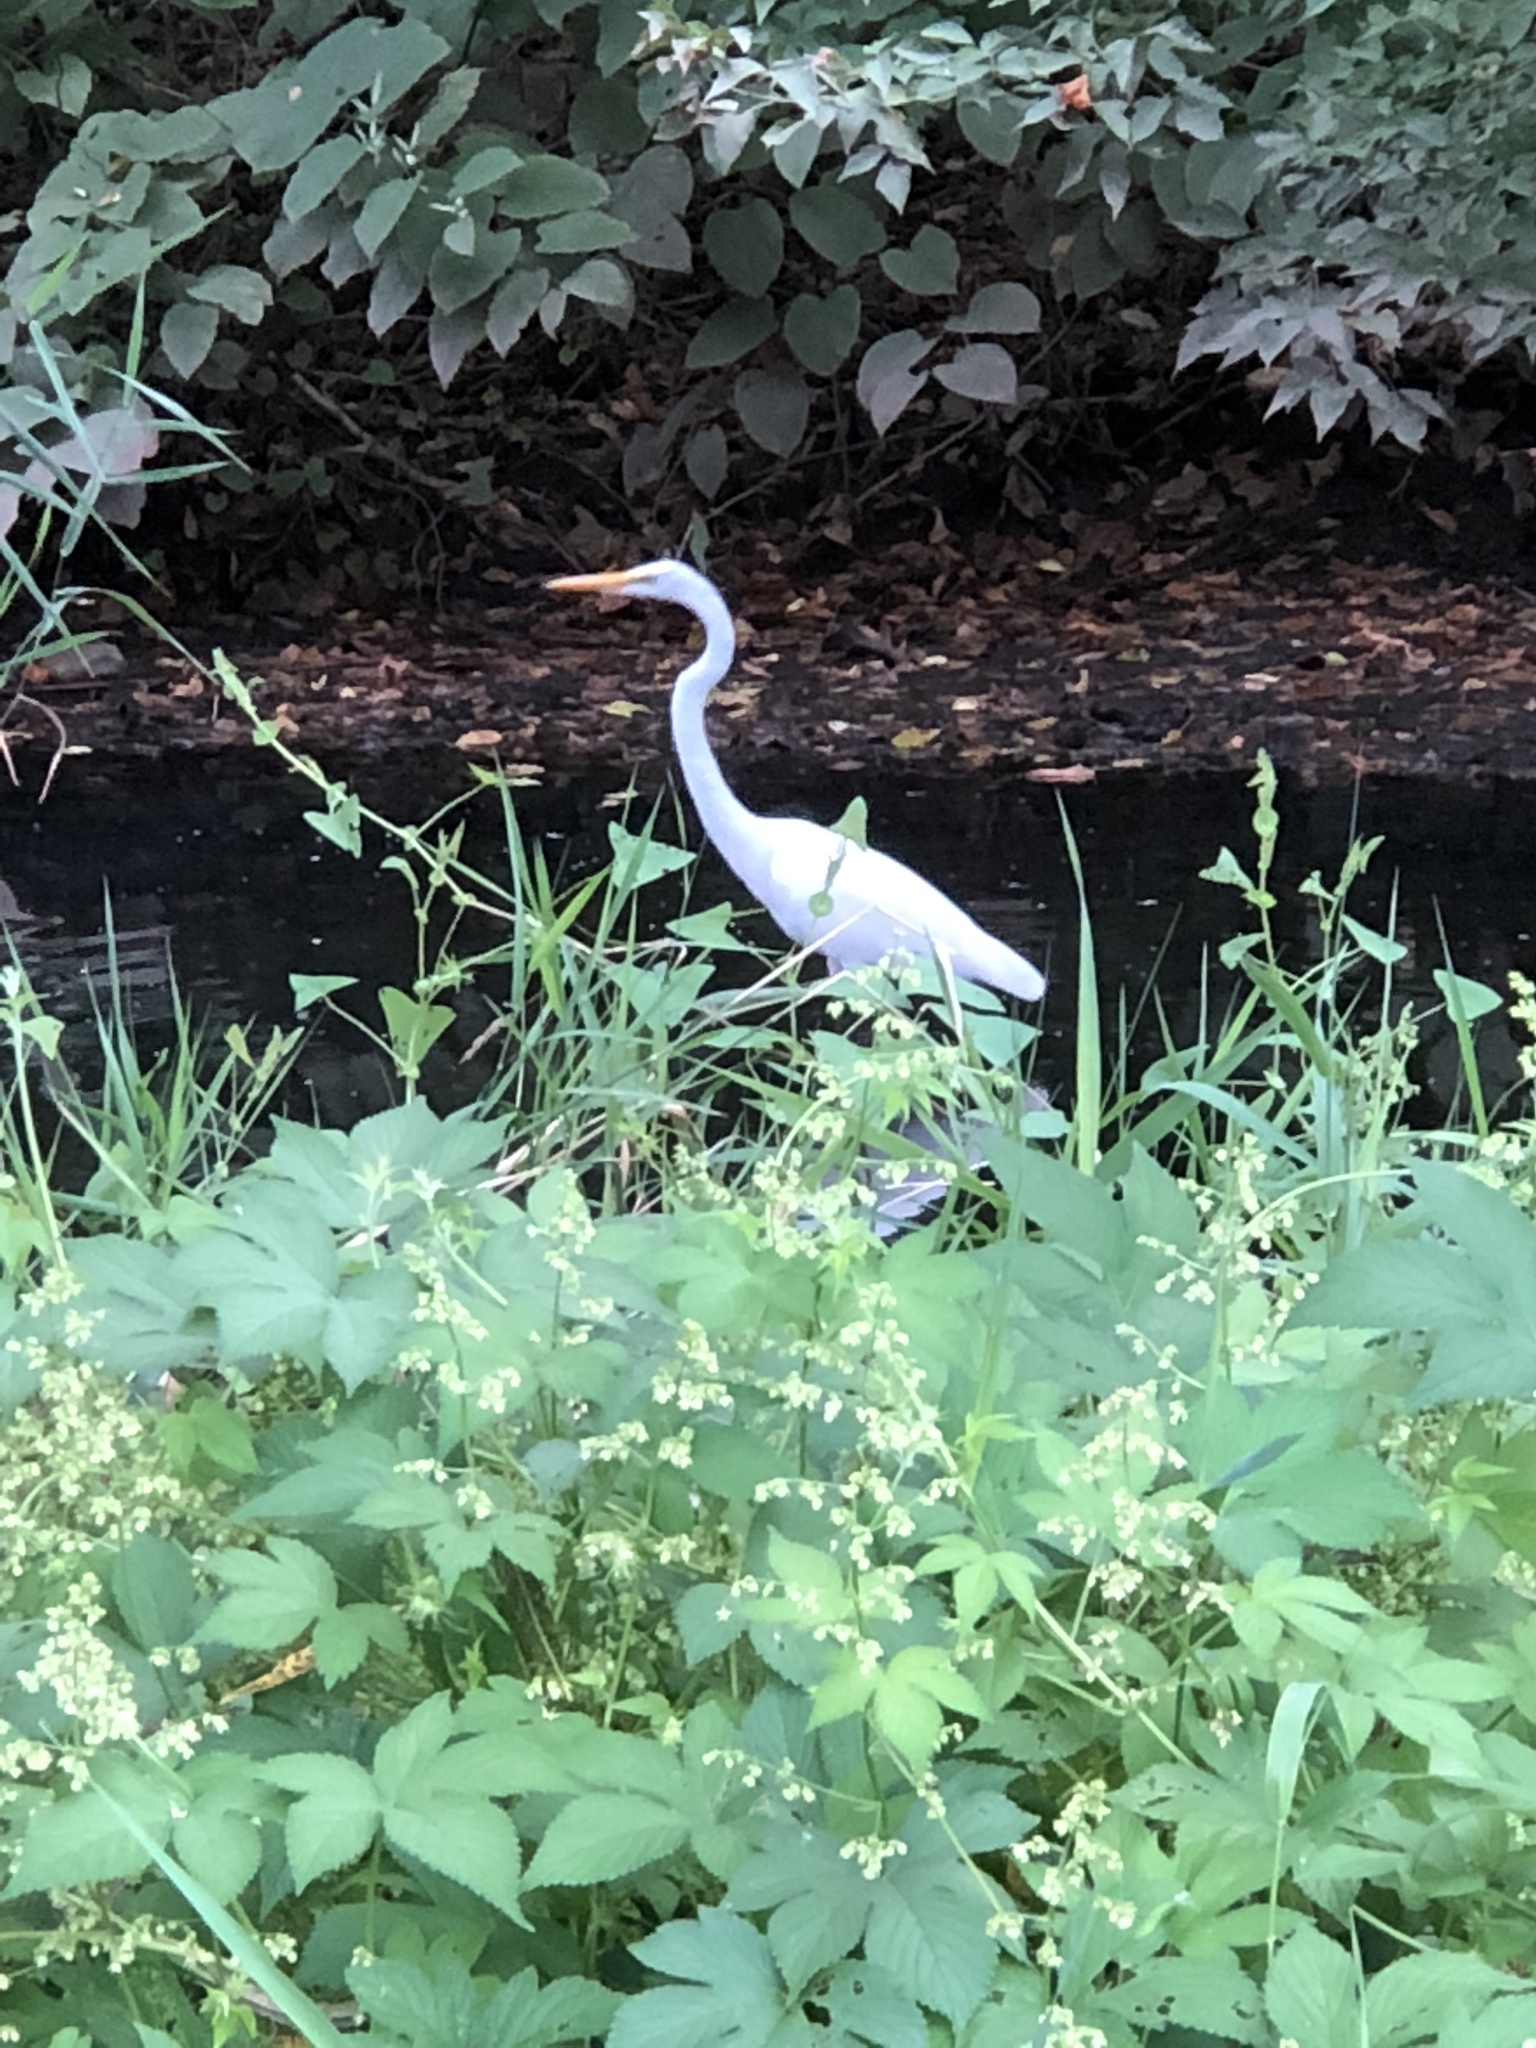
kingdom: Animalia
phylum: Chordata
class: Aves
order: Pelecaniformes
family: Ardeidae
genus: Ardea
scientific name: Ardea alba
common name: Great egret
